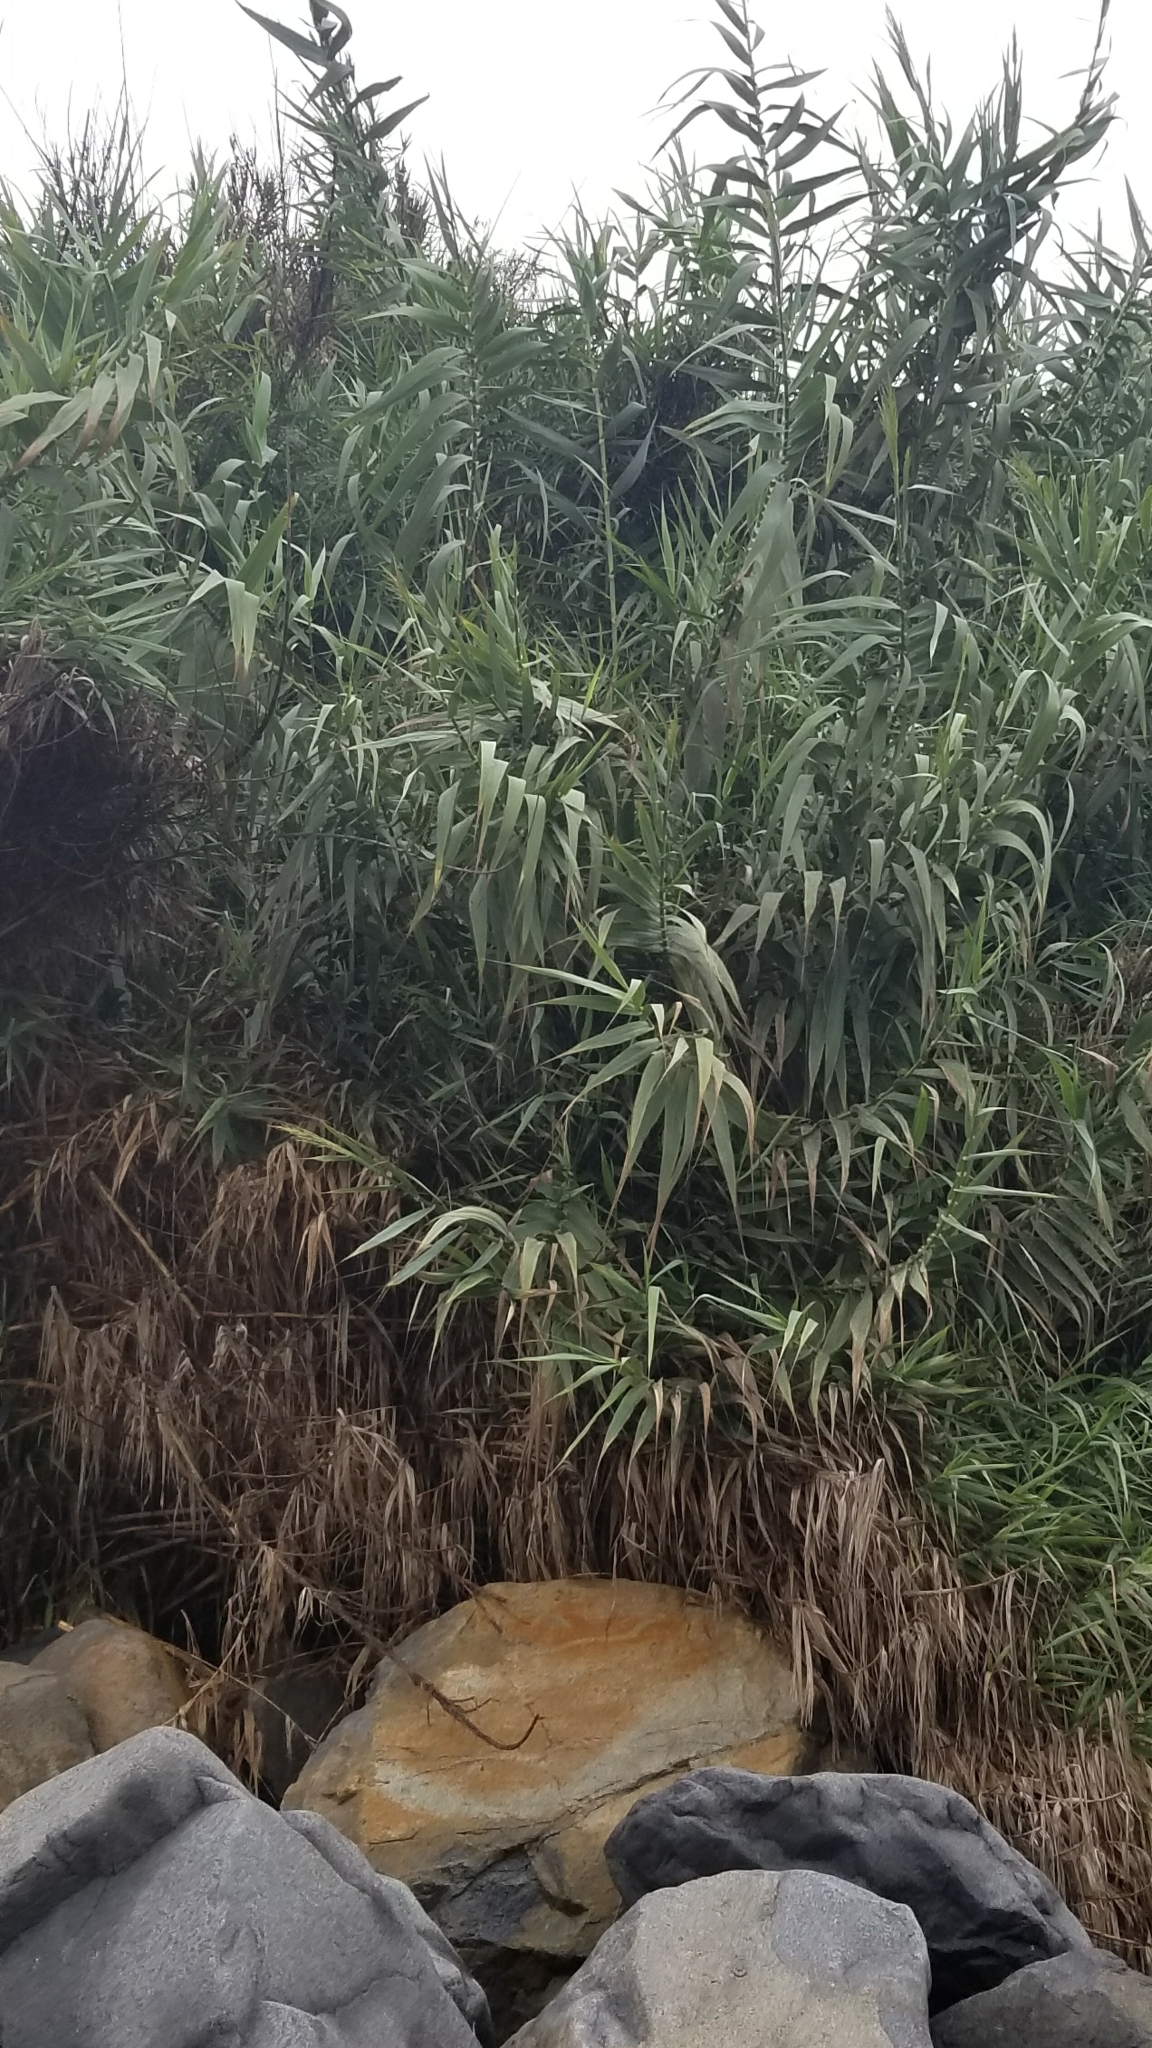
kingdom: Plantae
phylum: Tracheophyta
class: Liliopsida
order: Poales
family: Poaceae
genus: Arundo
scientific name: Arundo donax
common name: Giant reed
